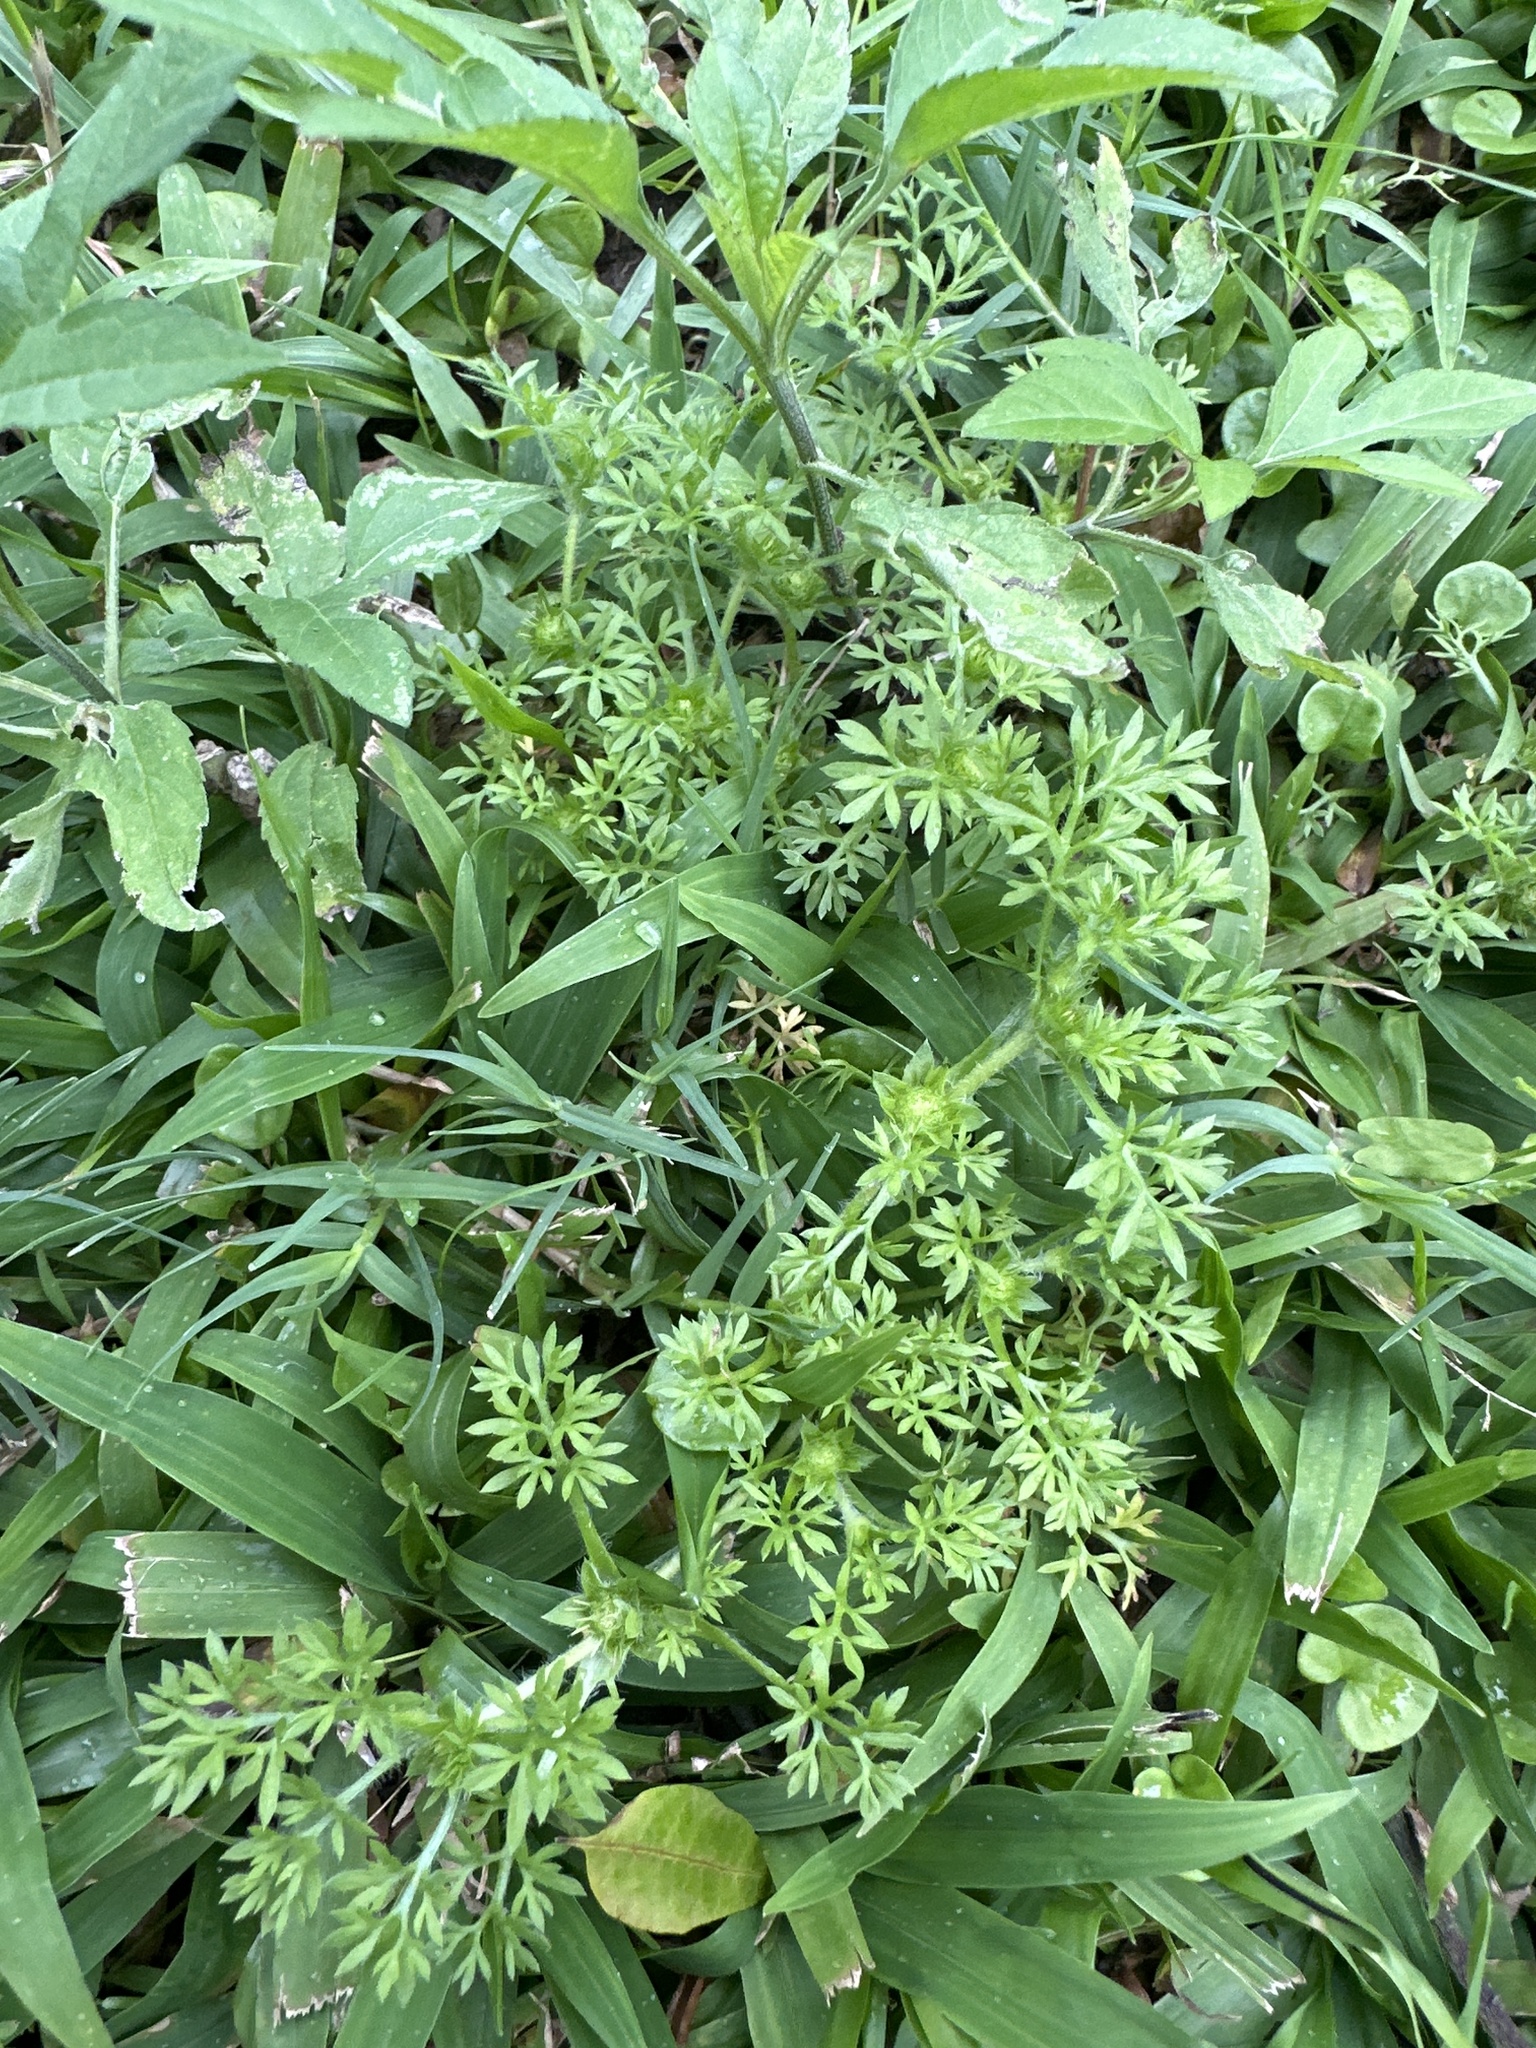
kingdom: Plantae
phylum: Tracheophyta
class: Magnoliopsida
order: Asterales
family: Asteraceae
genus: Soliva
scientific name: Soliva sessilis
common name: Field burrweed
